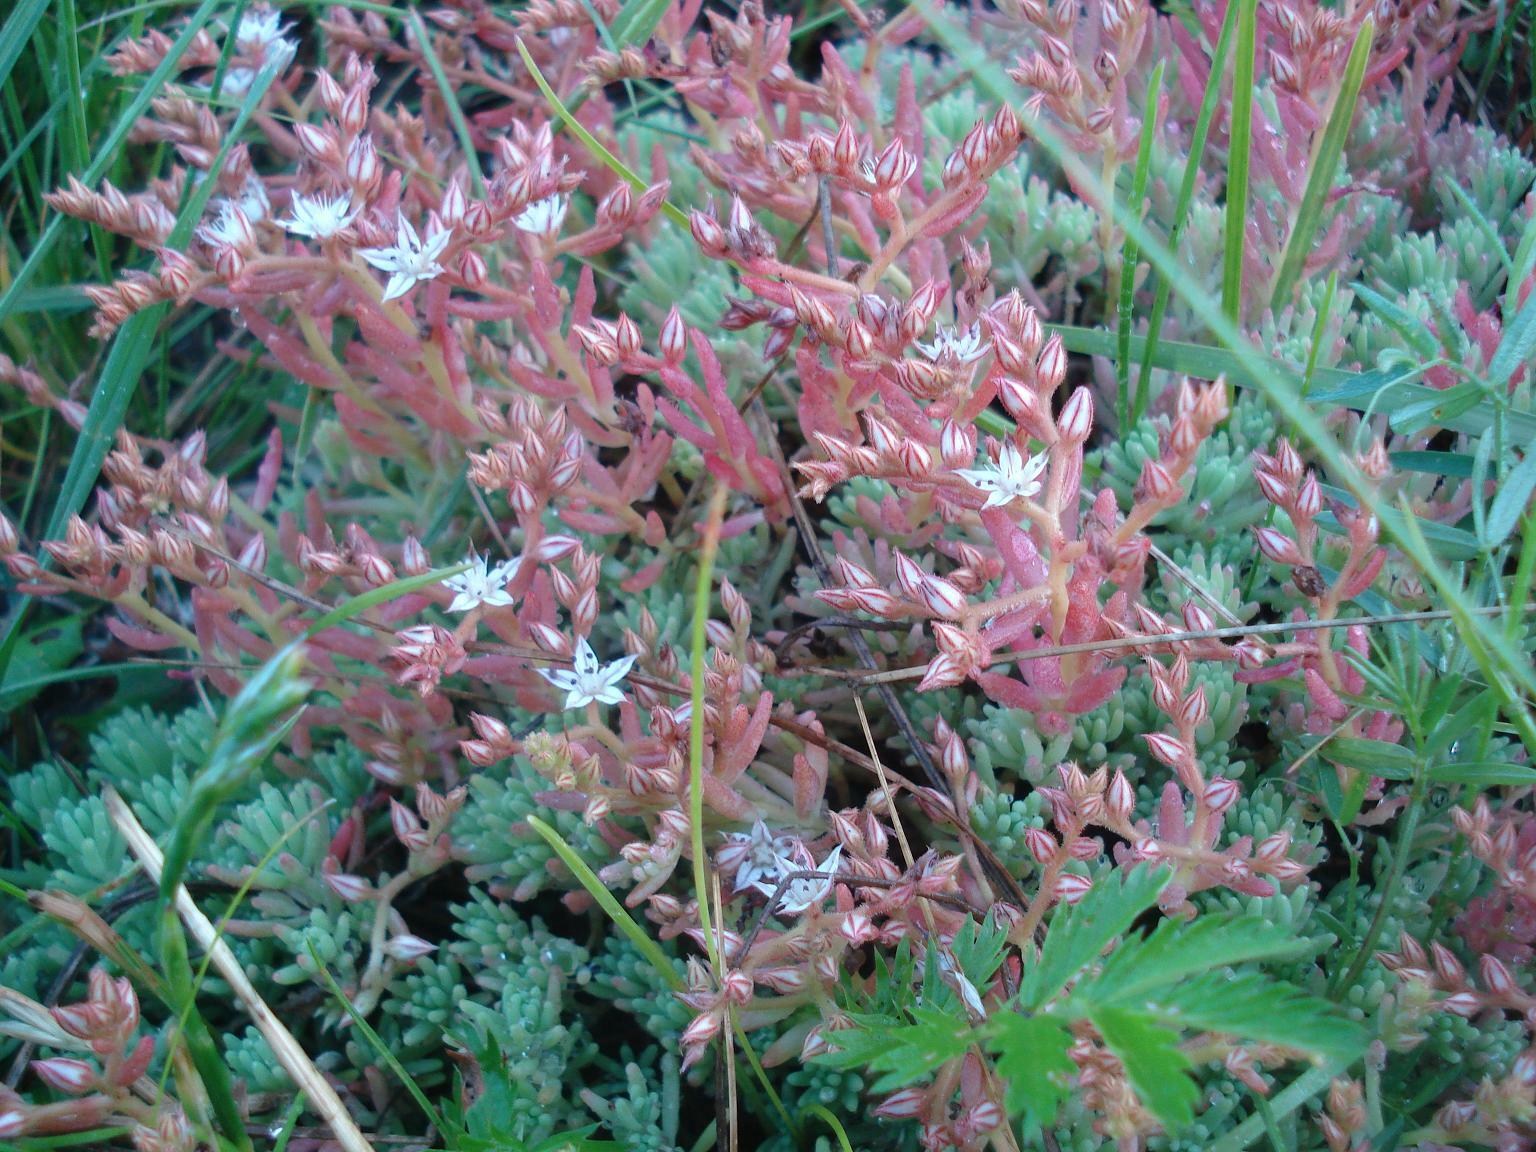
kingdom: Plantae
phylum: Tracheophyta
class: Magnoliopsida
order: Saxifragales
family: Crassulaceae
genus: Sedum
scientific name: Sedum pallidum
